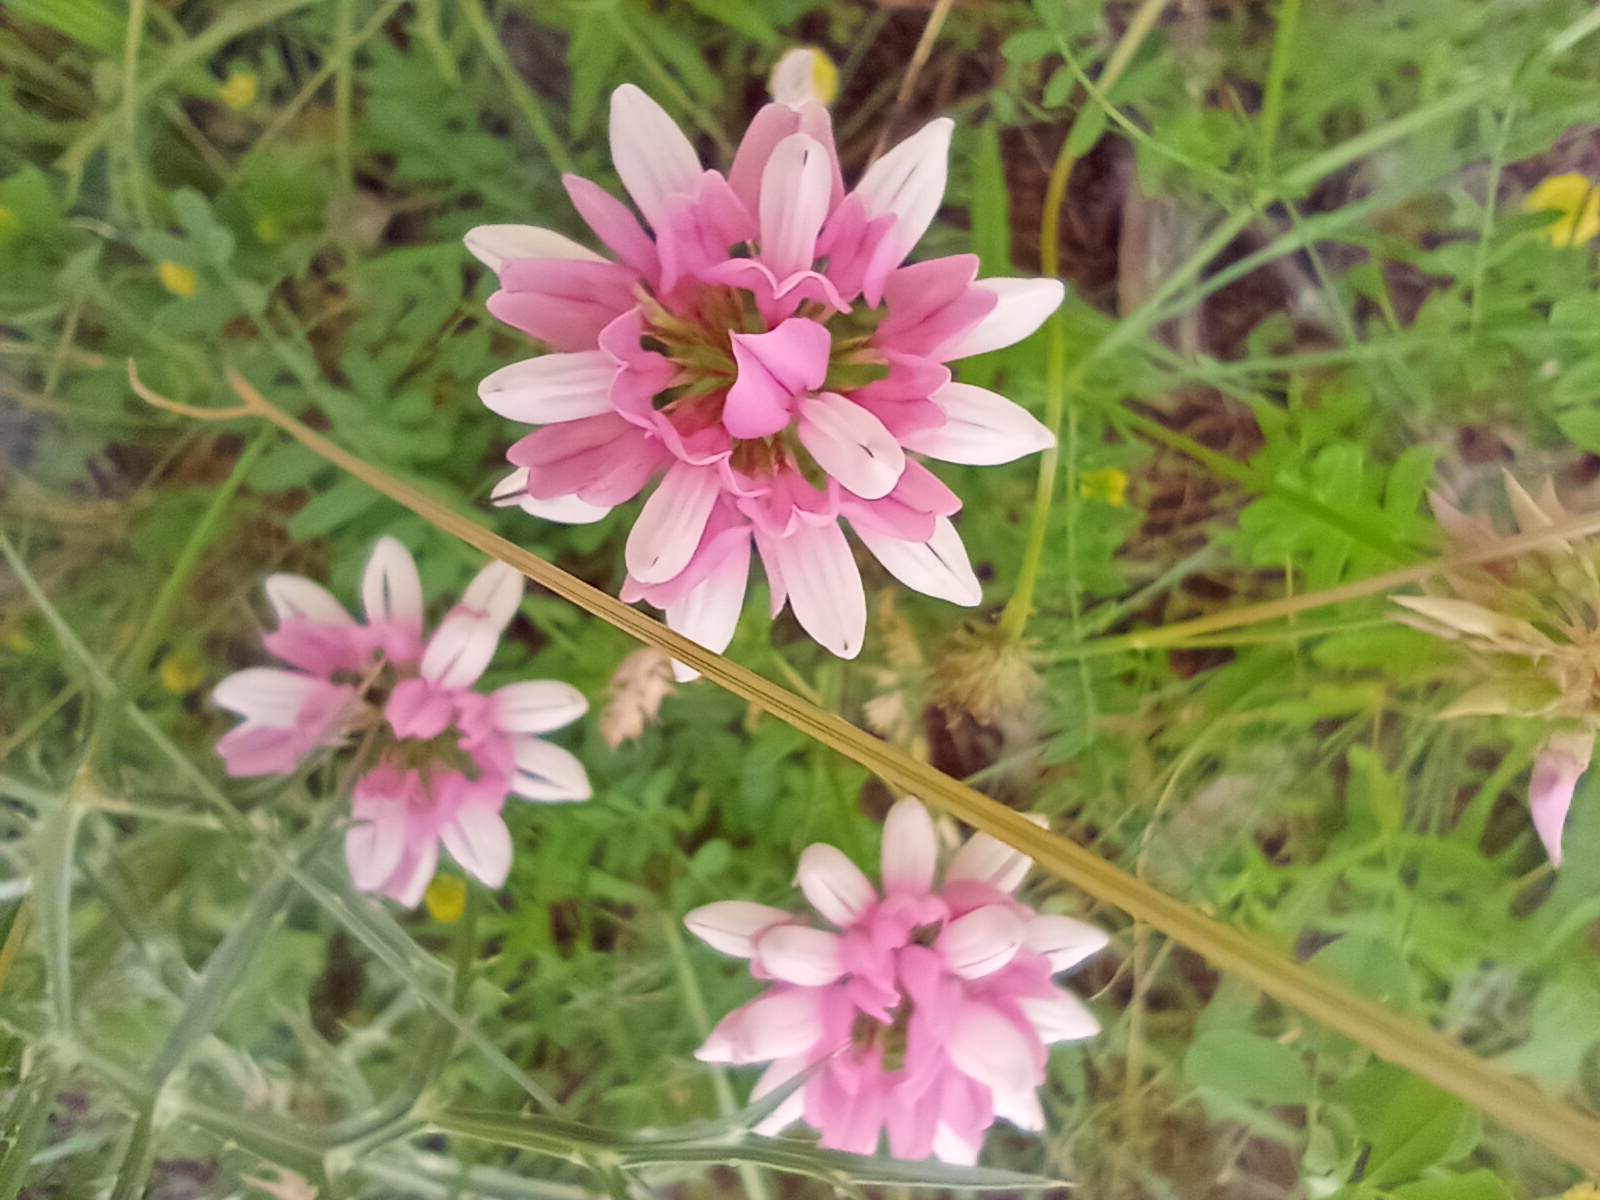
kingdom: Plantae
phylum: Tracheophyta
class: Magnoliopsida
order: Fabales
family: Fabaceae
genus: Coronilla
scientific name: Coronilla varia
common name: Crownvetch
